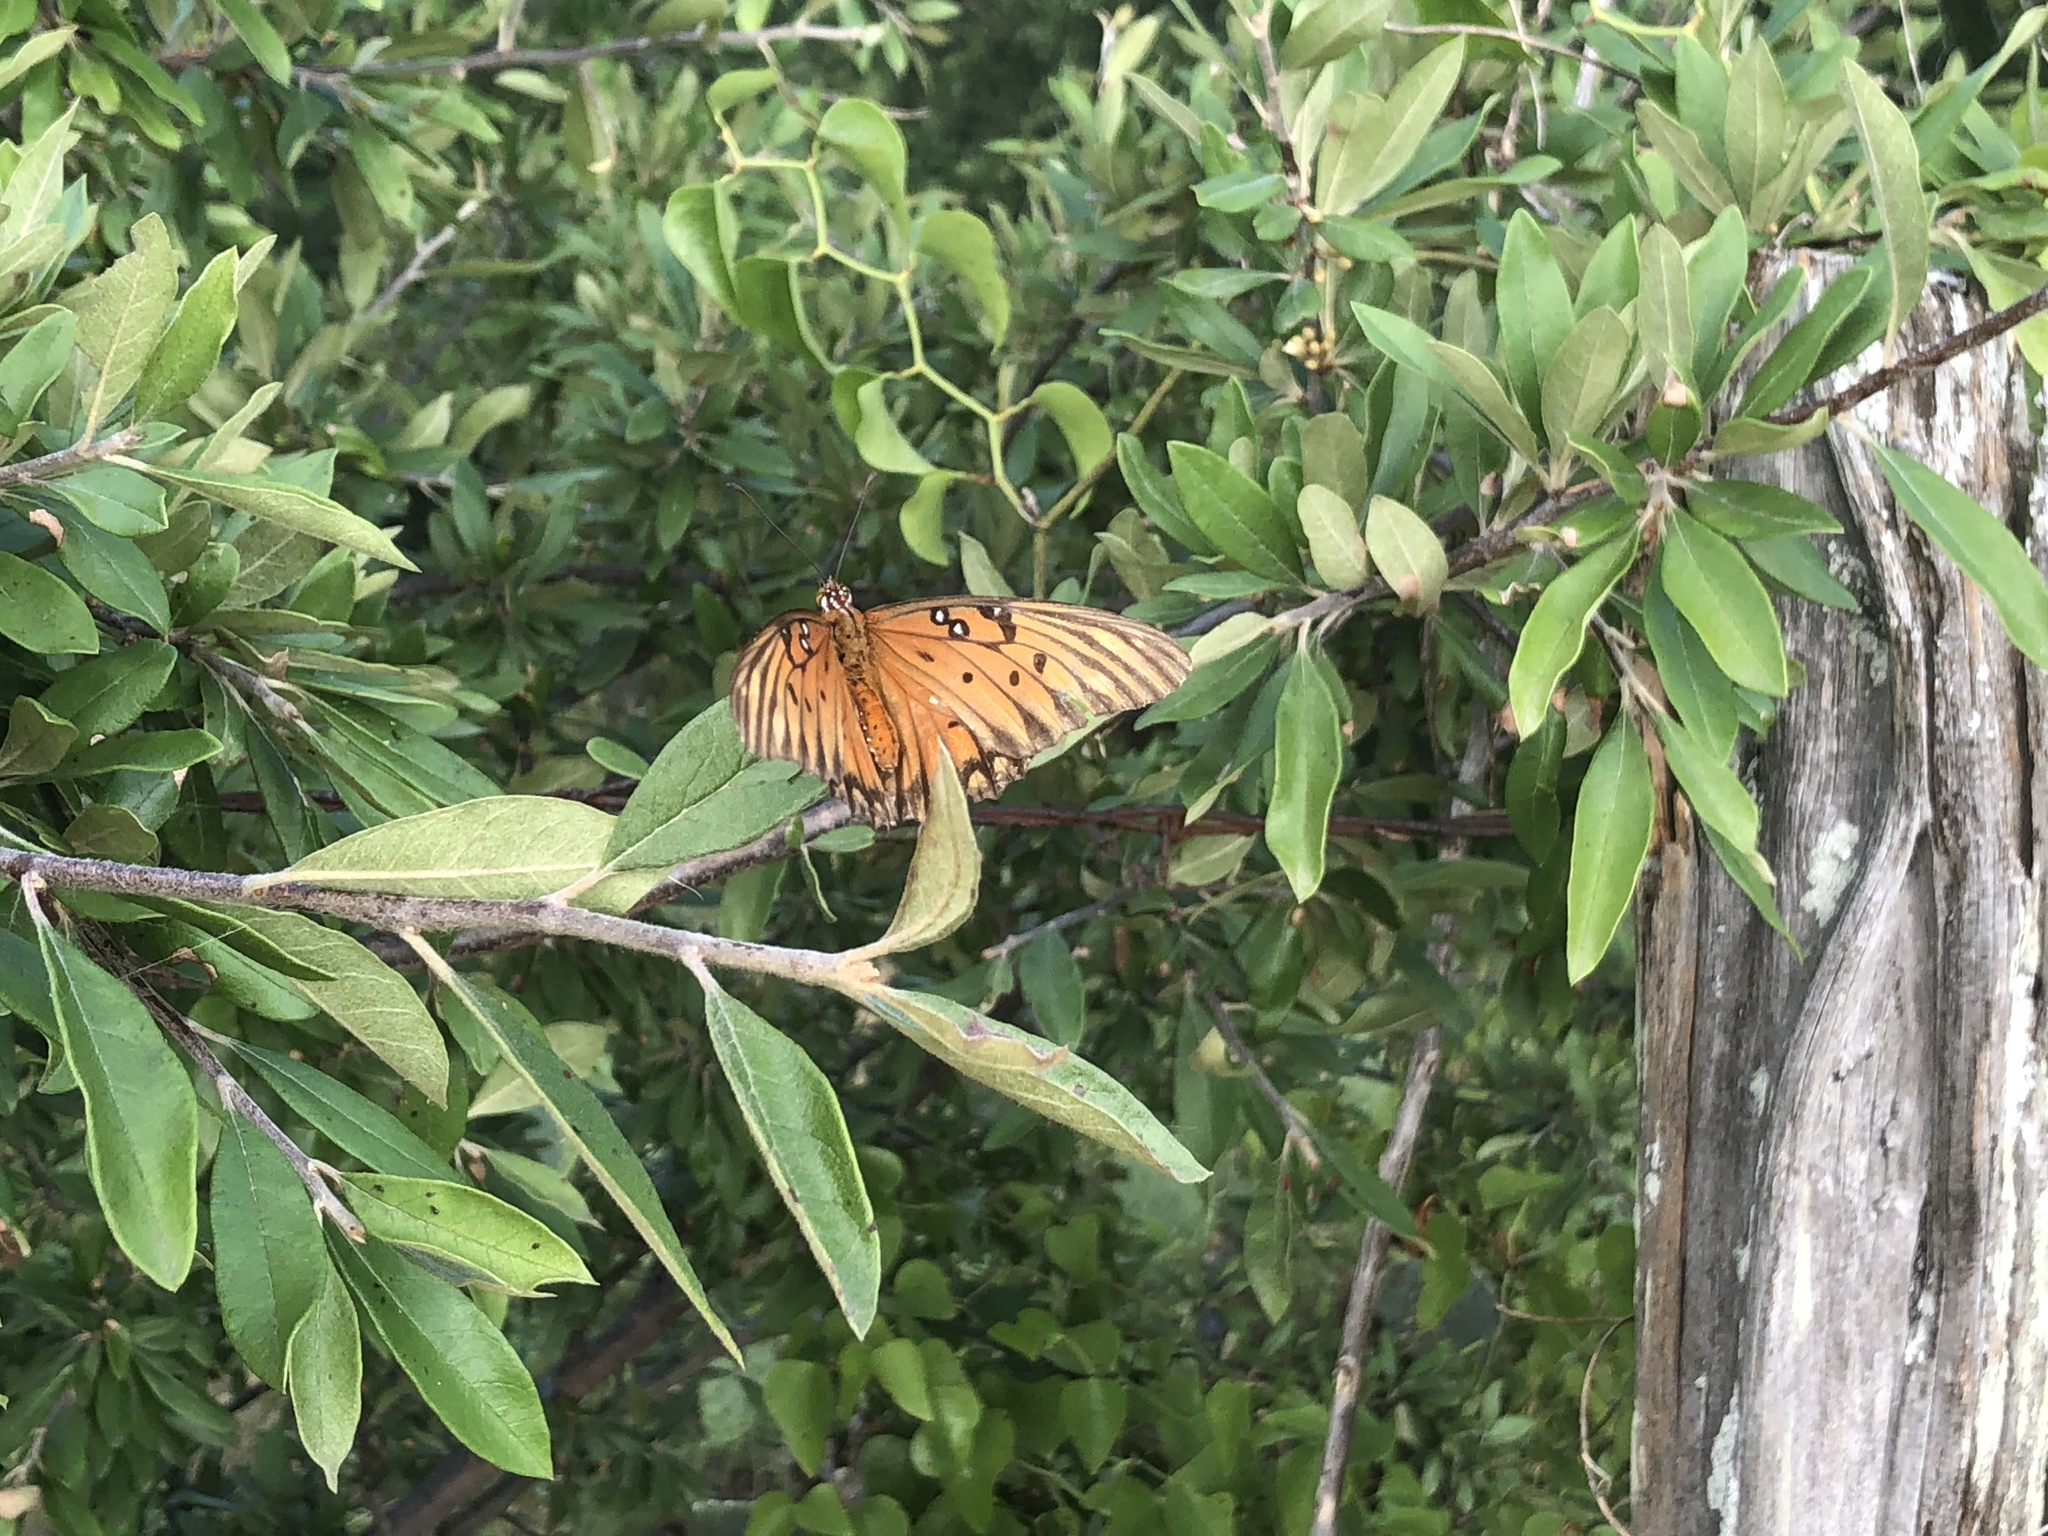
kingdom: Animalia
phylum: Arthropoda
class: Insecta
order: Lepidoptera
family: Nymphalidae
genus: Dione
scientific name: Dione vanillae
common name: Gulf fritillary
